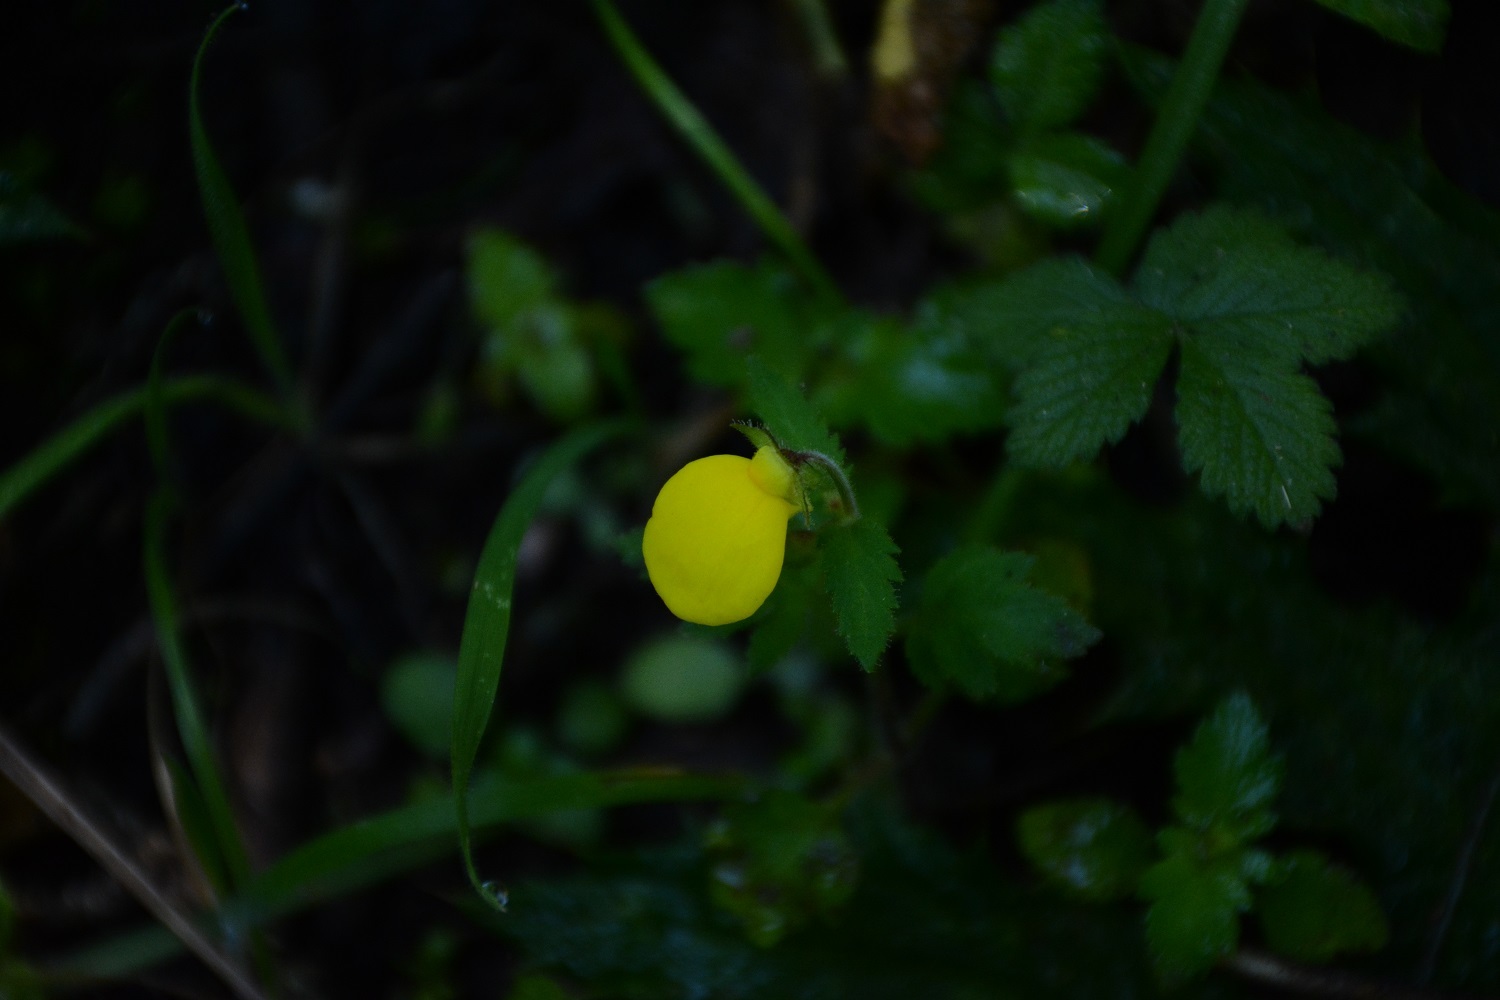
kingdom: Plantae
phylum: Tracheophyta
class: Magnoliopsida
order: Lamiales
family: Calceolariaceae
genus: Calceolaria
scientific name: Calceolaria tripartita
